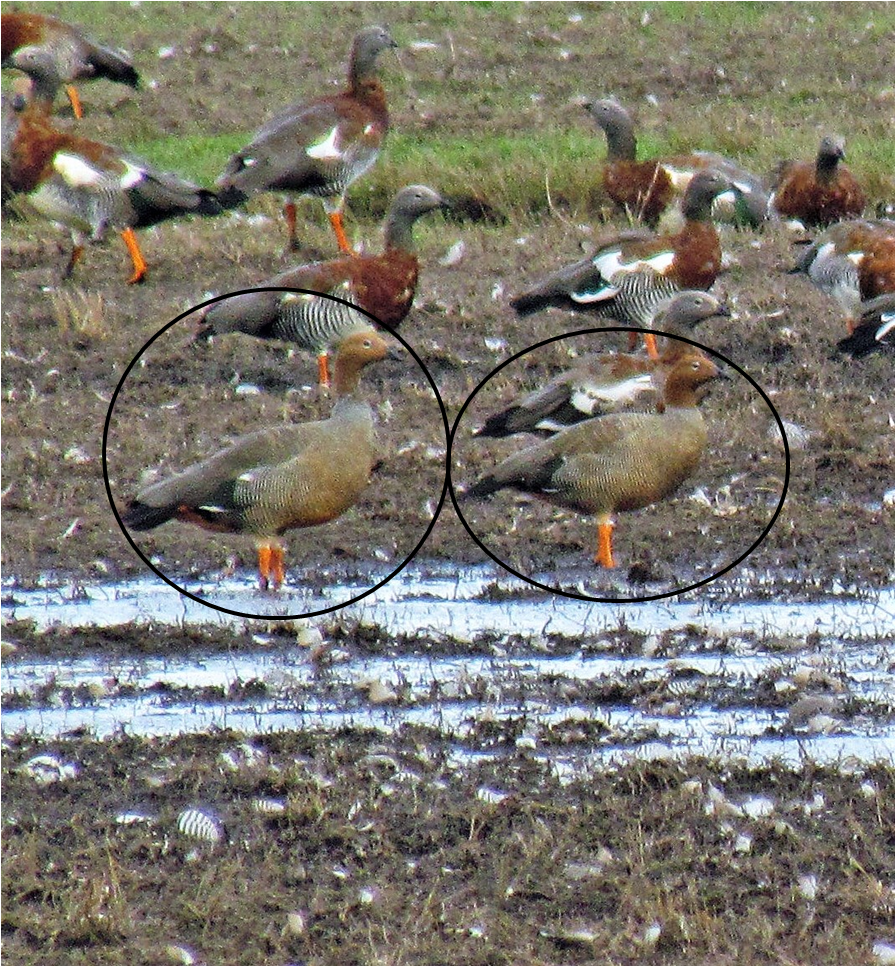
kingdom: Animalia
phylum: Chordata
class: Aves
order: Anseriformes
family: Anatidae
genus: Chloephaga
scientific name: Chloephaga rubidiceps
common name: Ruddy-headed goose
